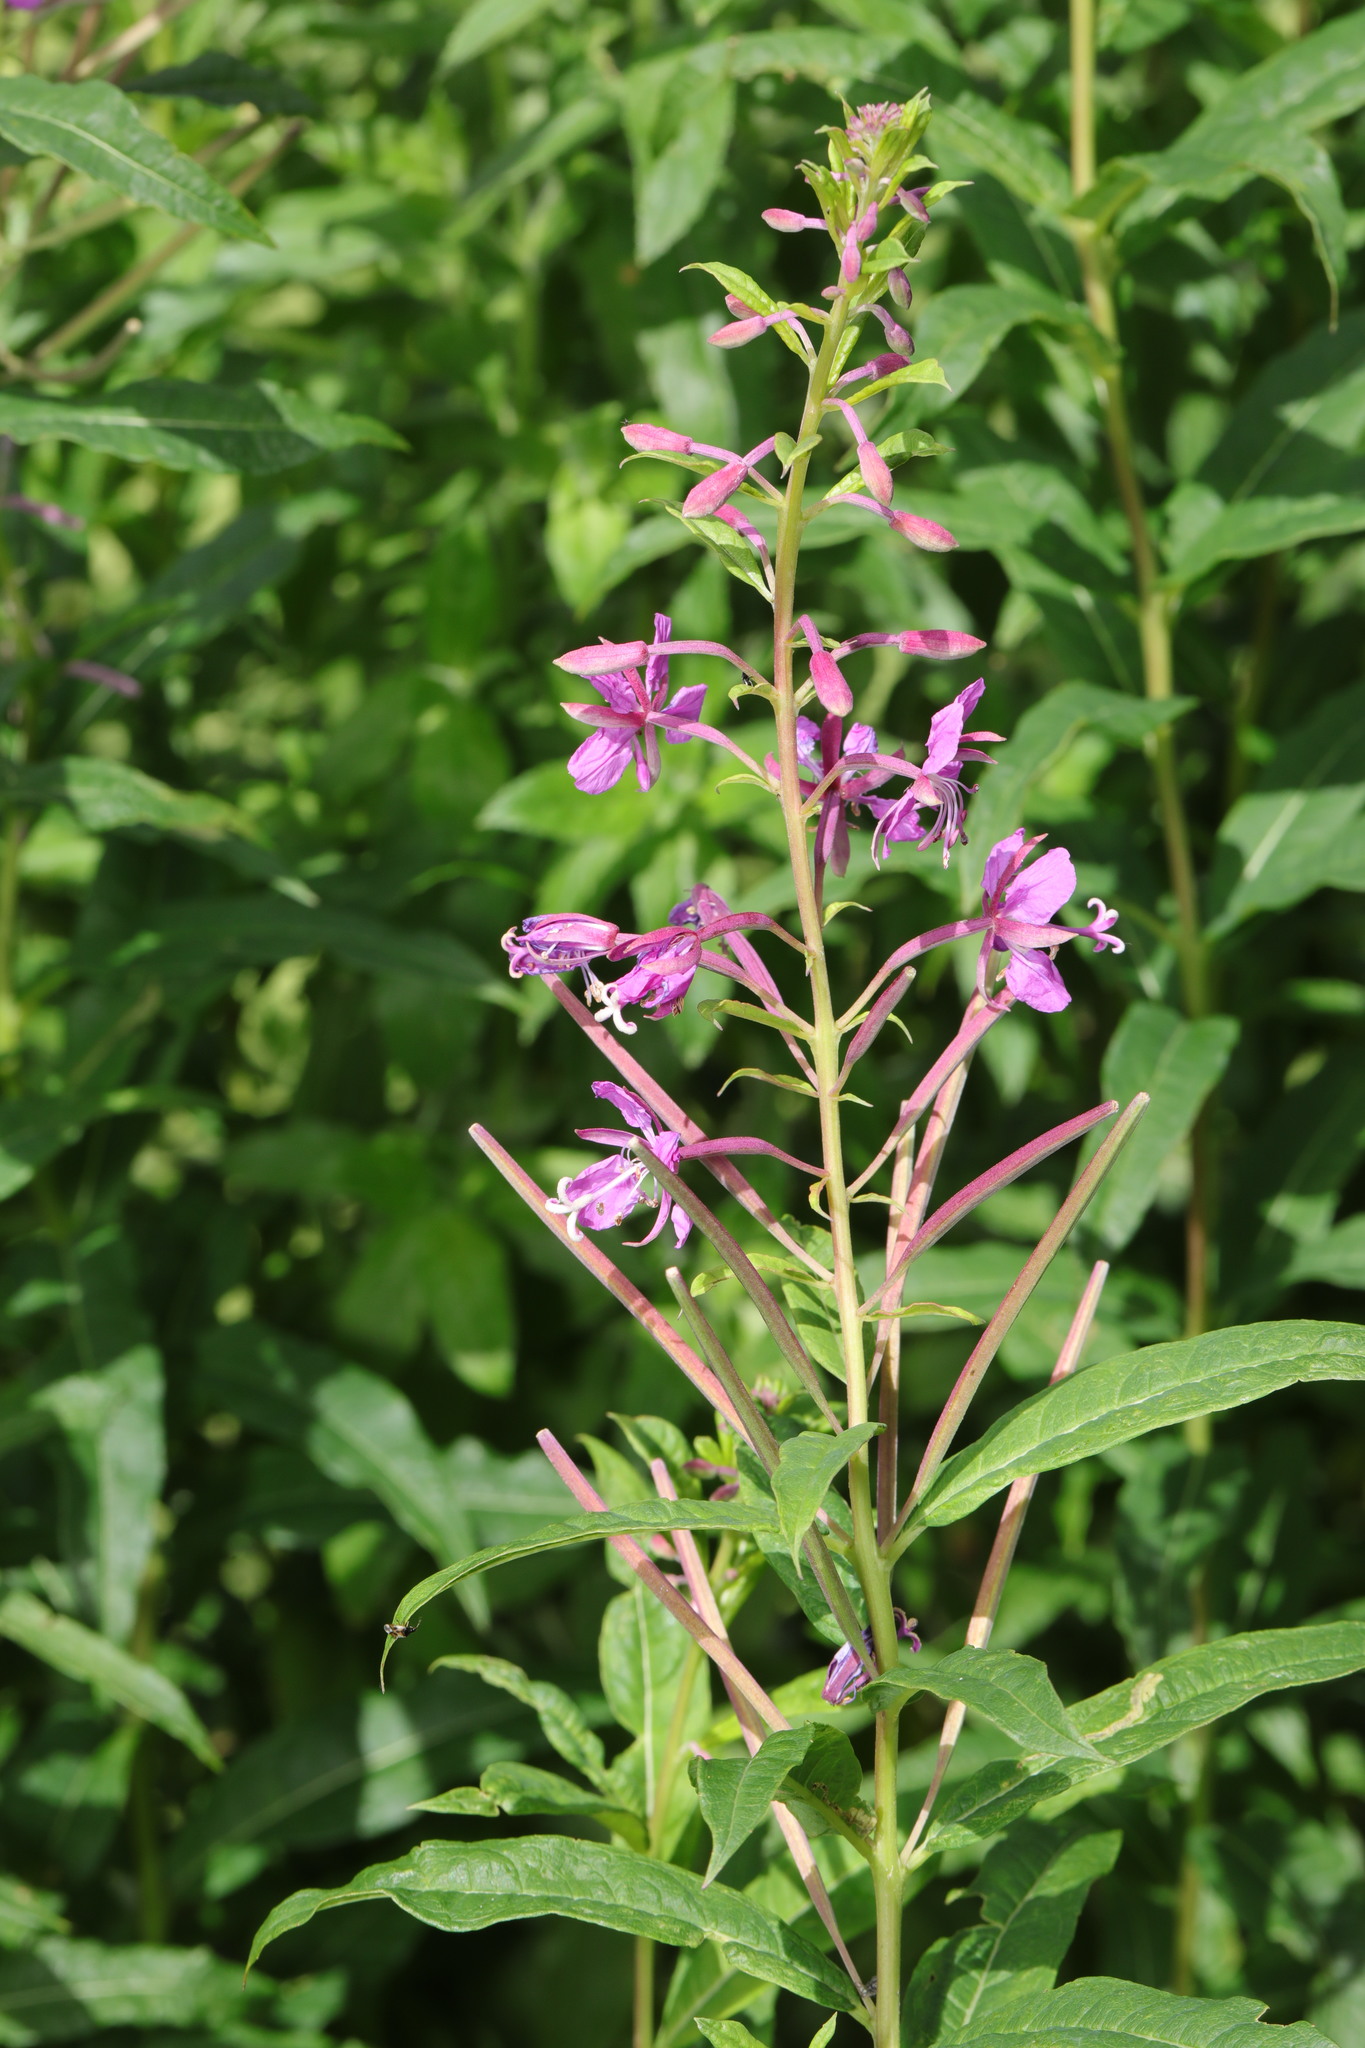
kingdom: Plantae
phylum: Tracheophyta
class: Magnoliopsida
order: Myrtales
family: Onagraceae
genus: Chamaenerion
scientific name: Chamaenerion angustifolium
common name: Fireweed
